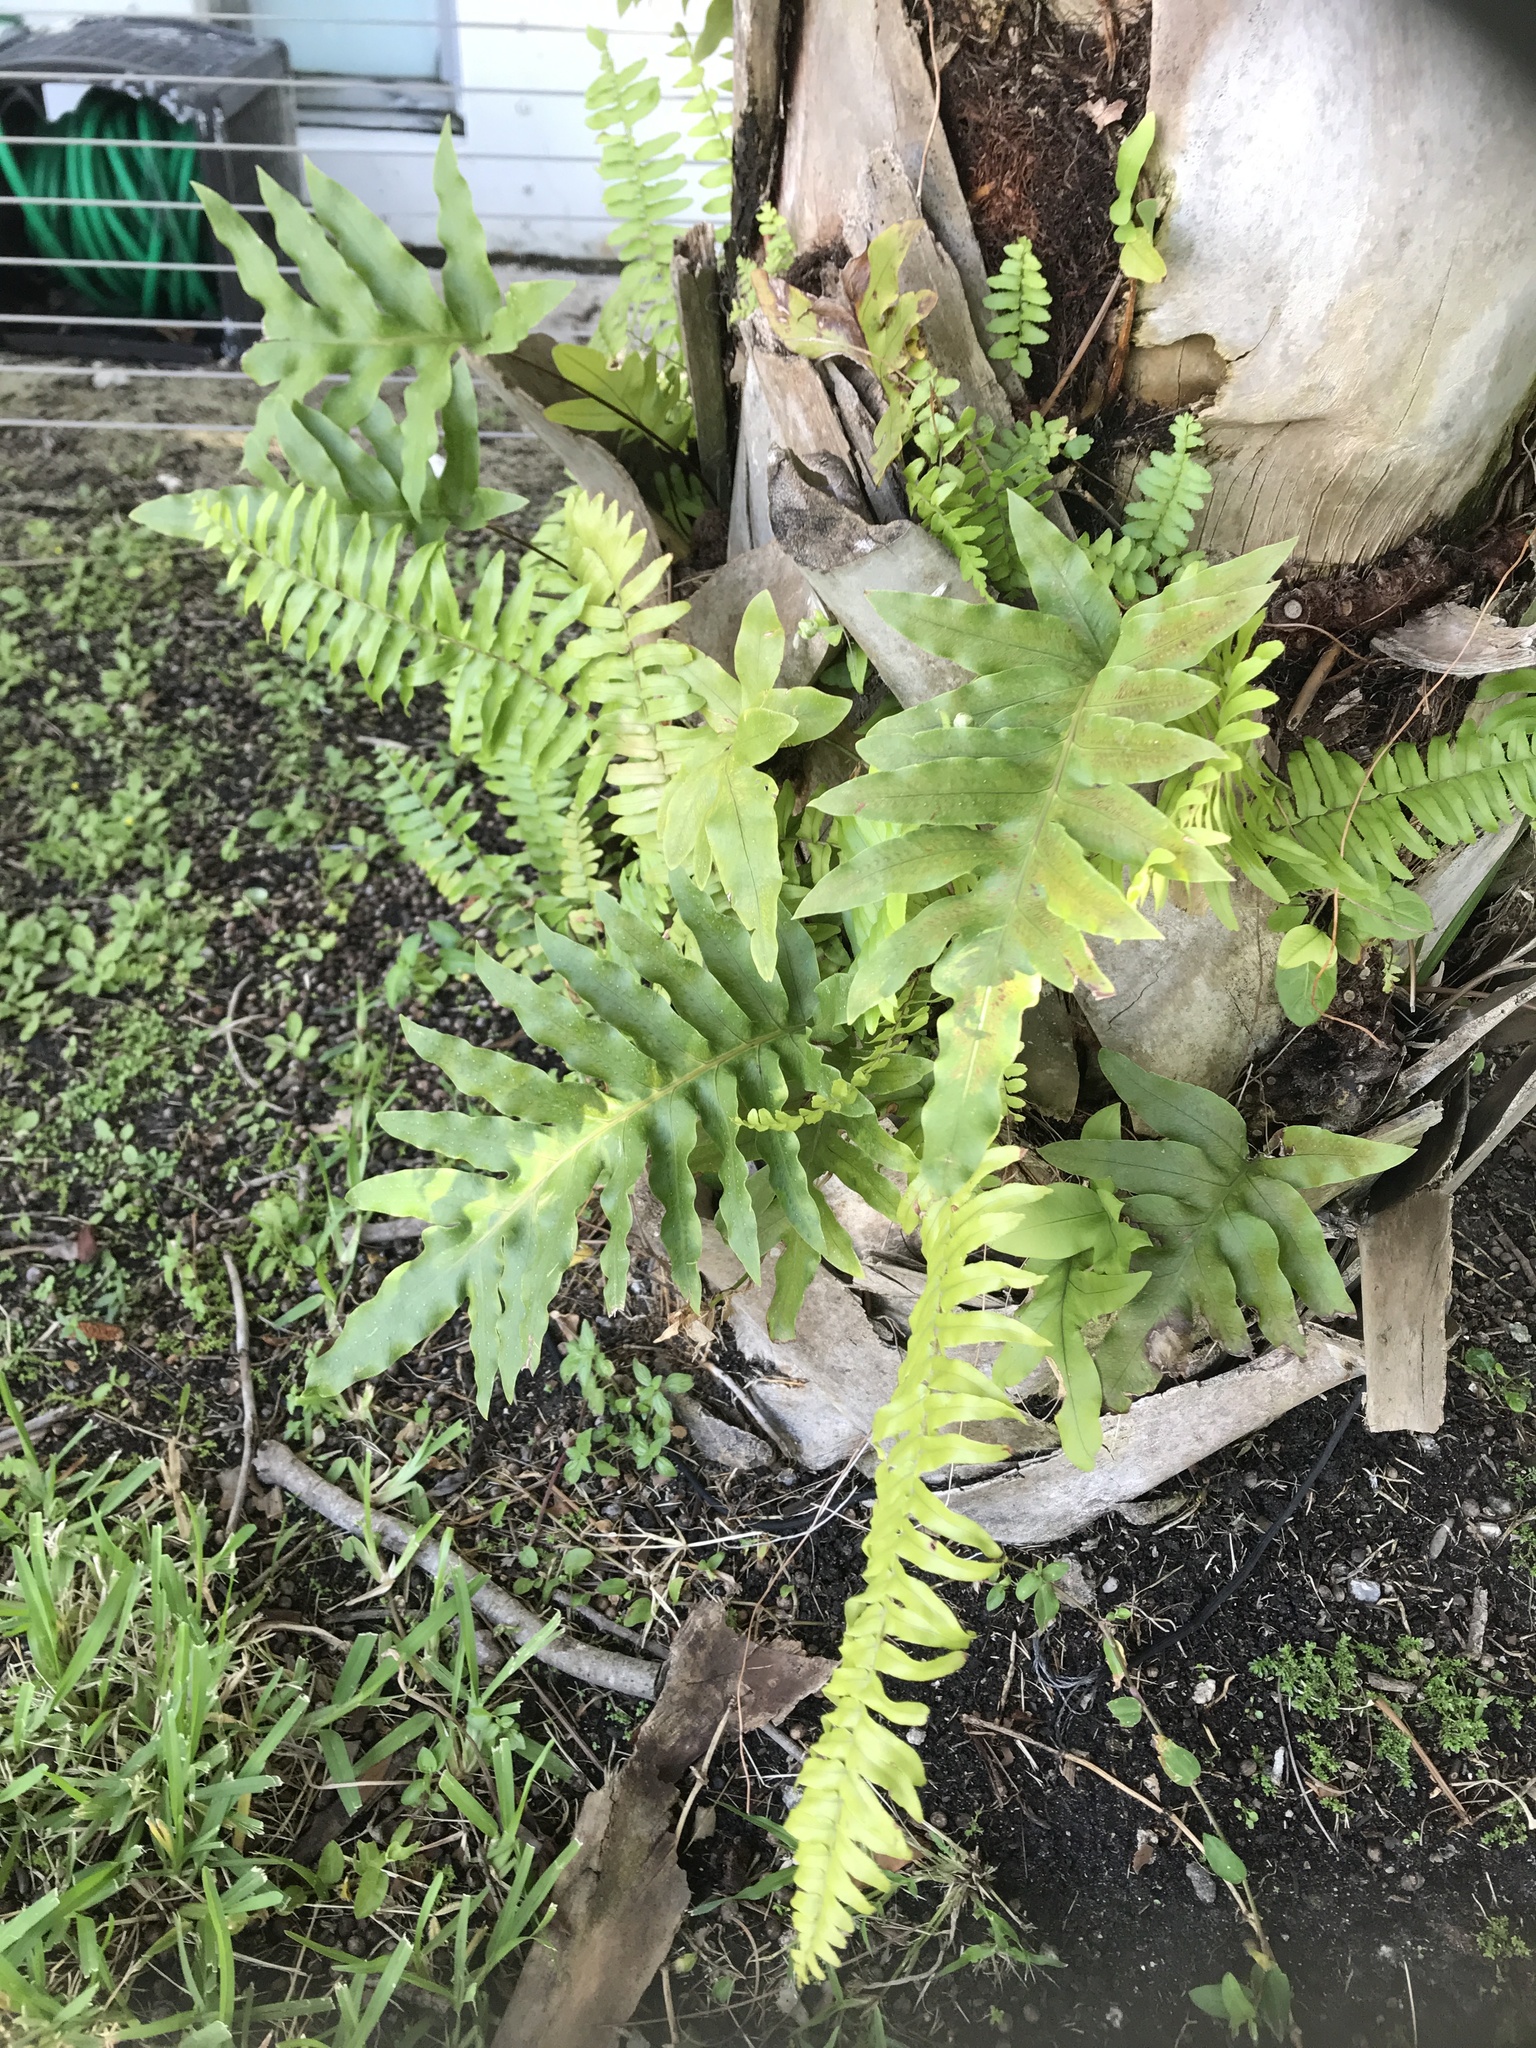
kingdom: Plantae
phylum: Tracheophyta
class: Polypodiopsida
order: Polypodiales
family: Polypodiaceae
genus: Phlebodium
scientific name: Phlebodium aureum
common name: Gold-foot fern
